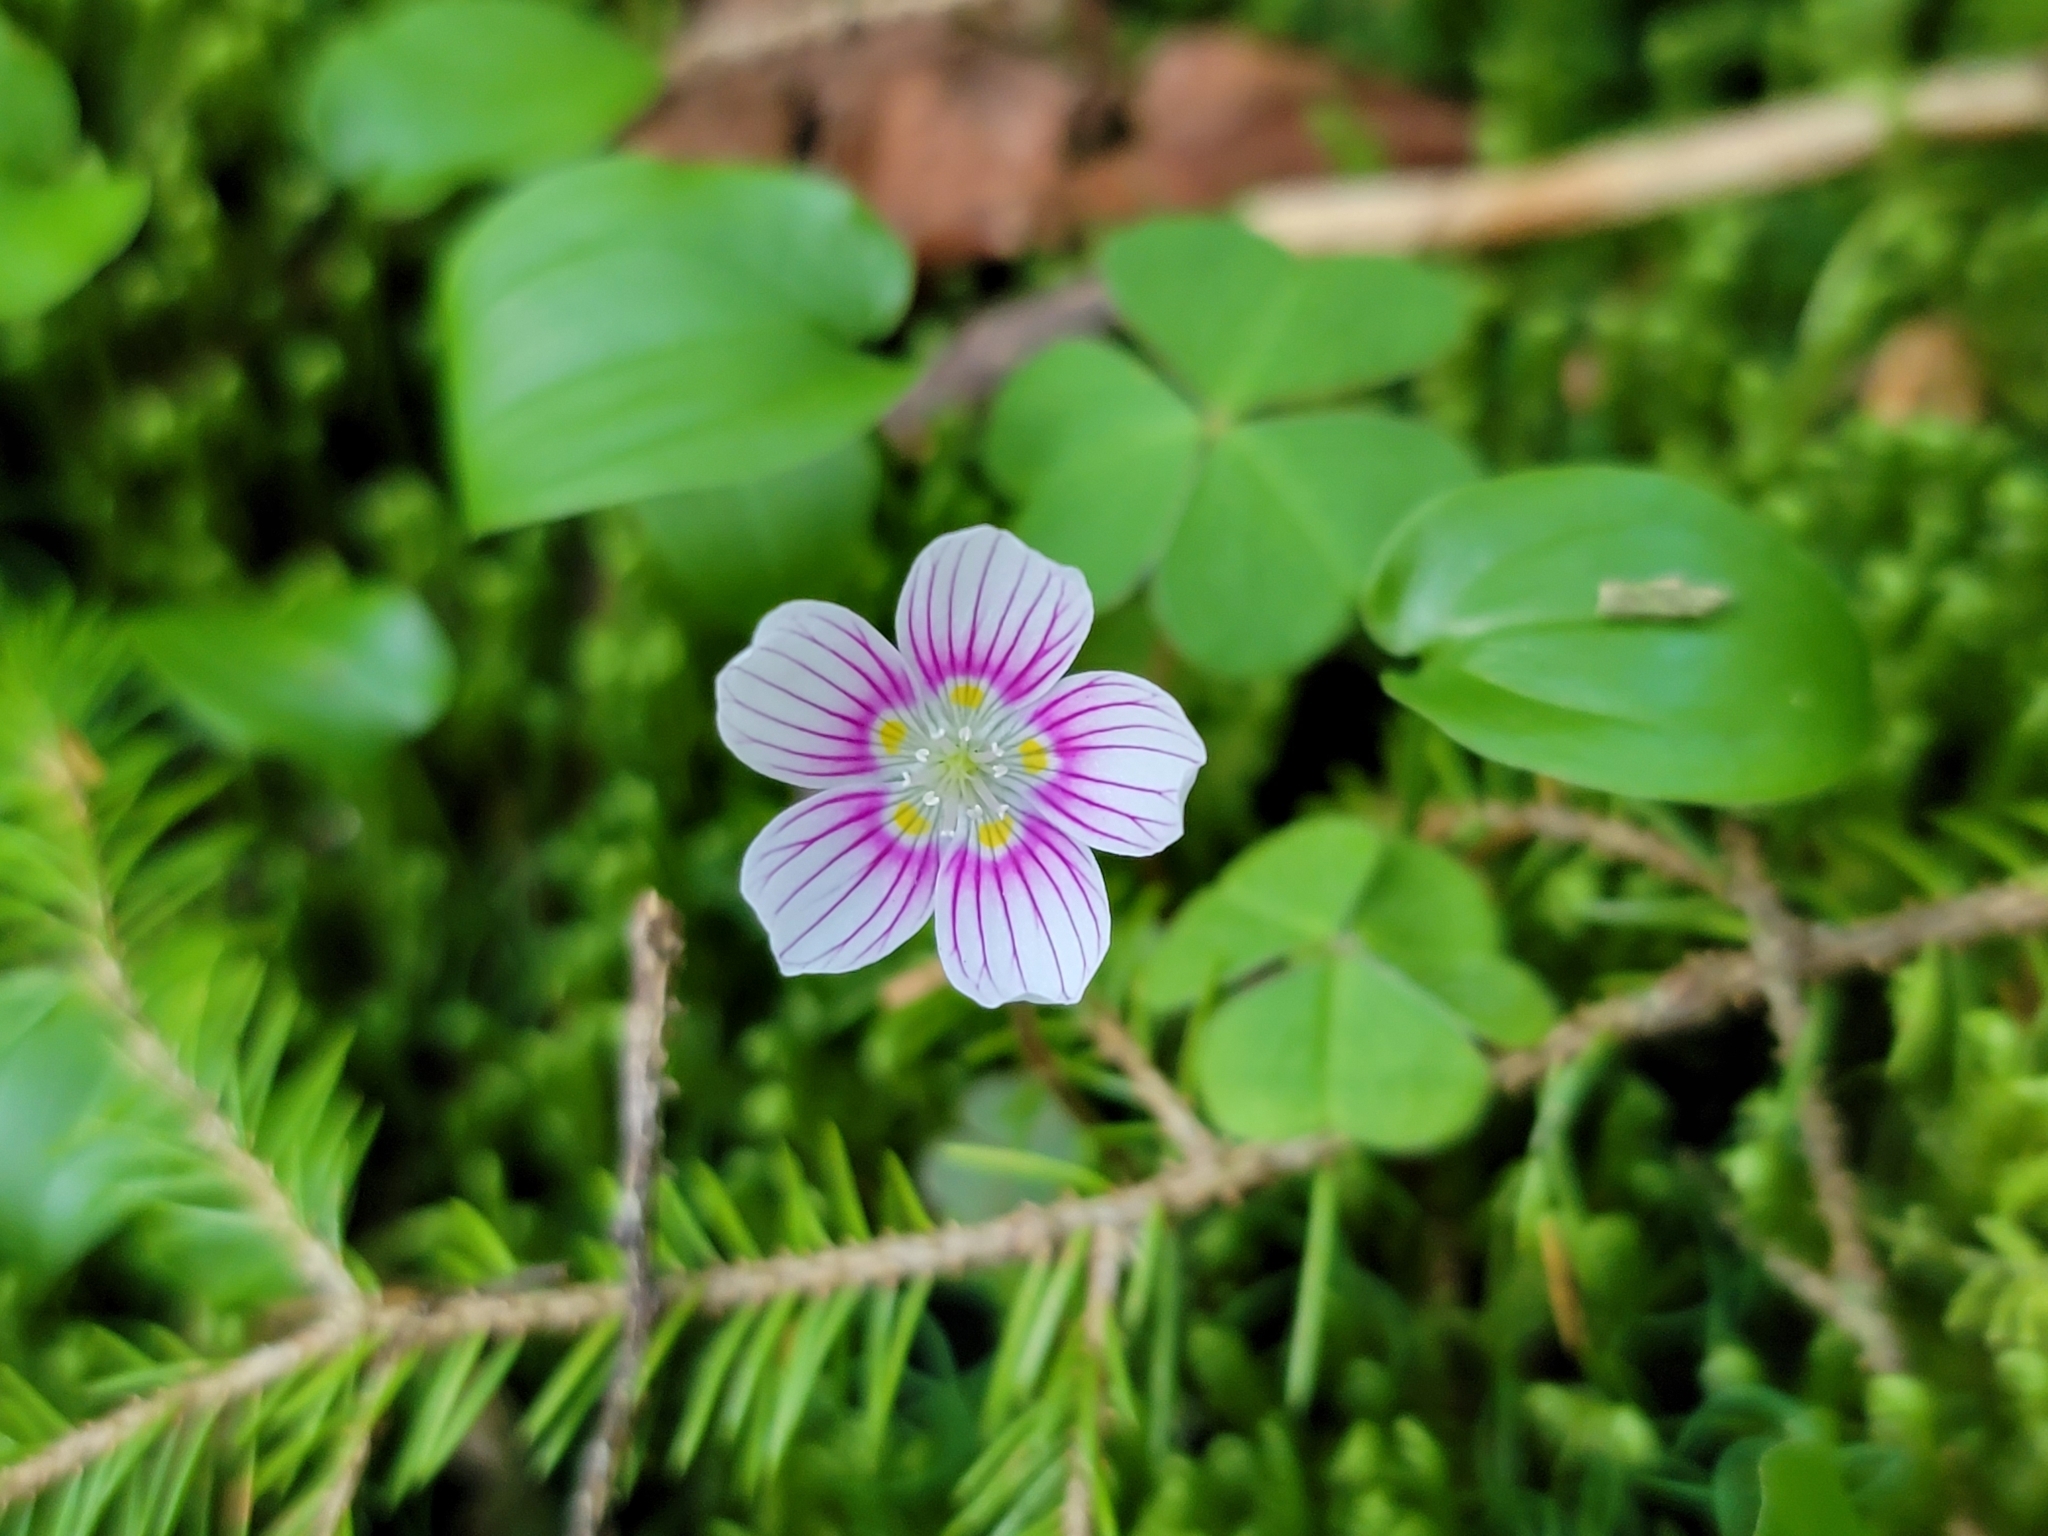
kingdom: Plantae
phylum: Tracheophyta
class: Magnoliopsida
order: Oxalidales
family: Oxalidaceae
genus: Oxalis
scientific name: Oxalis montana
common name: American wood-sorrel
